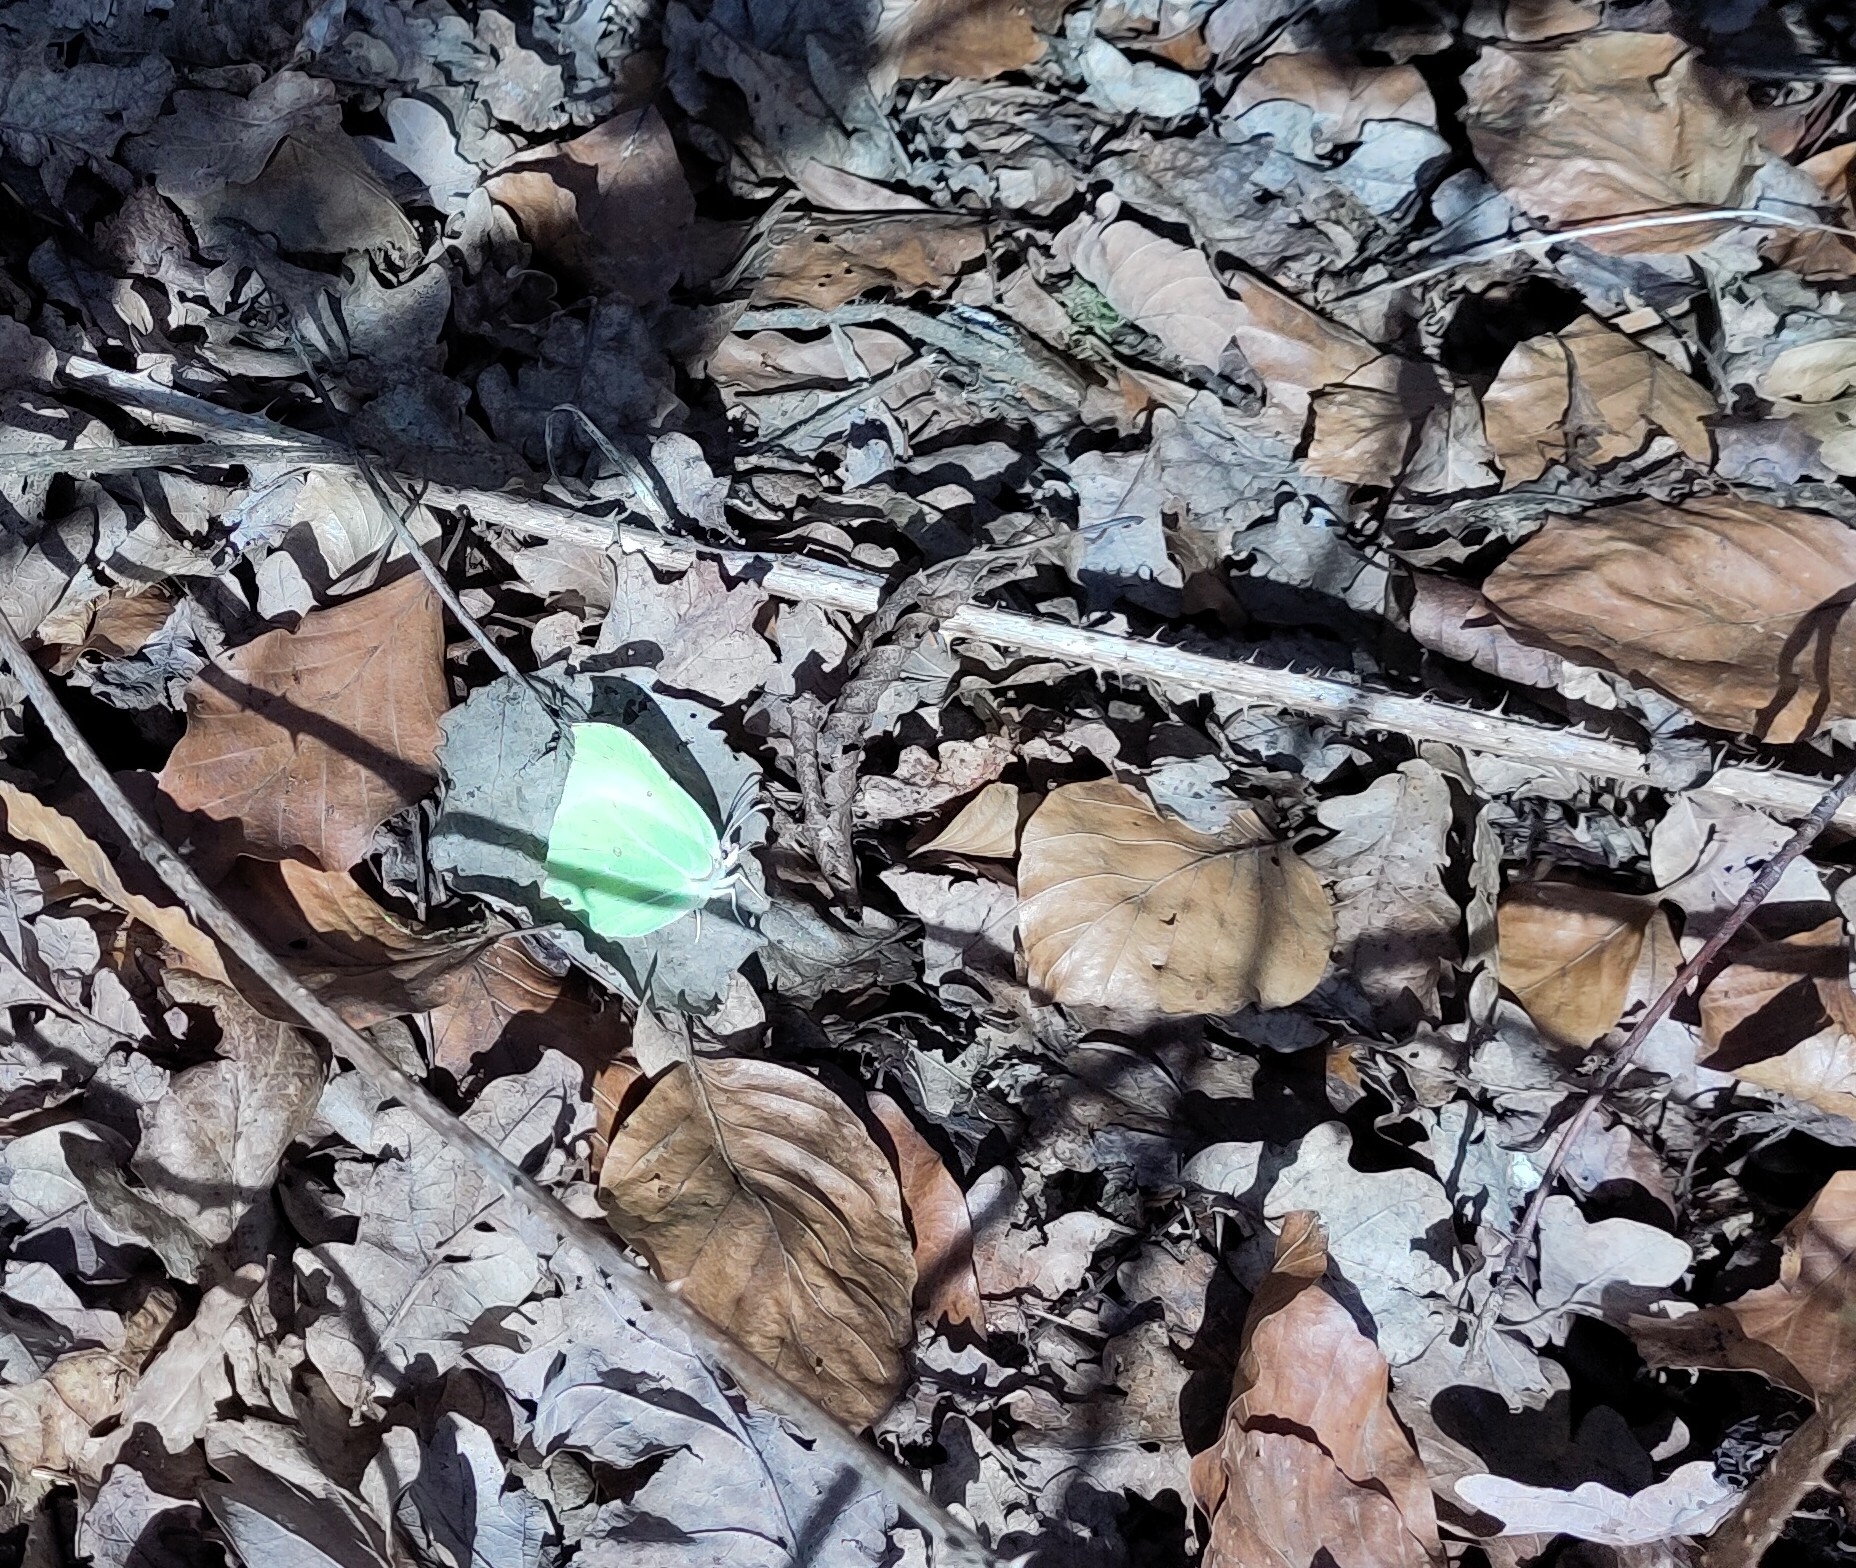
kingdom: Animalia
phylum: Arthropoda
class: Insecta
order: Lepidoptera
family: Pieridae
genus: Gonepteryx
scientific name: Gonepteryx rhamni
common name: Brimstone
